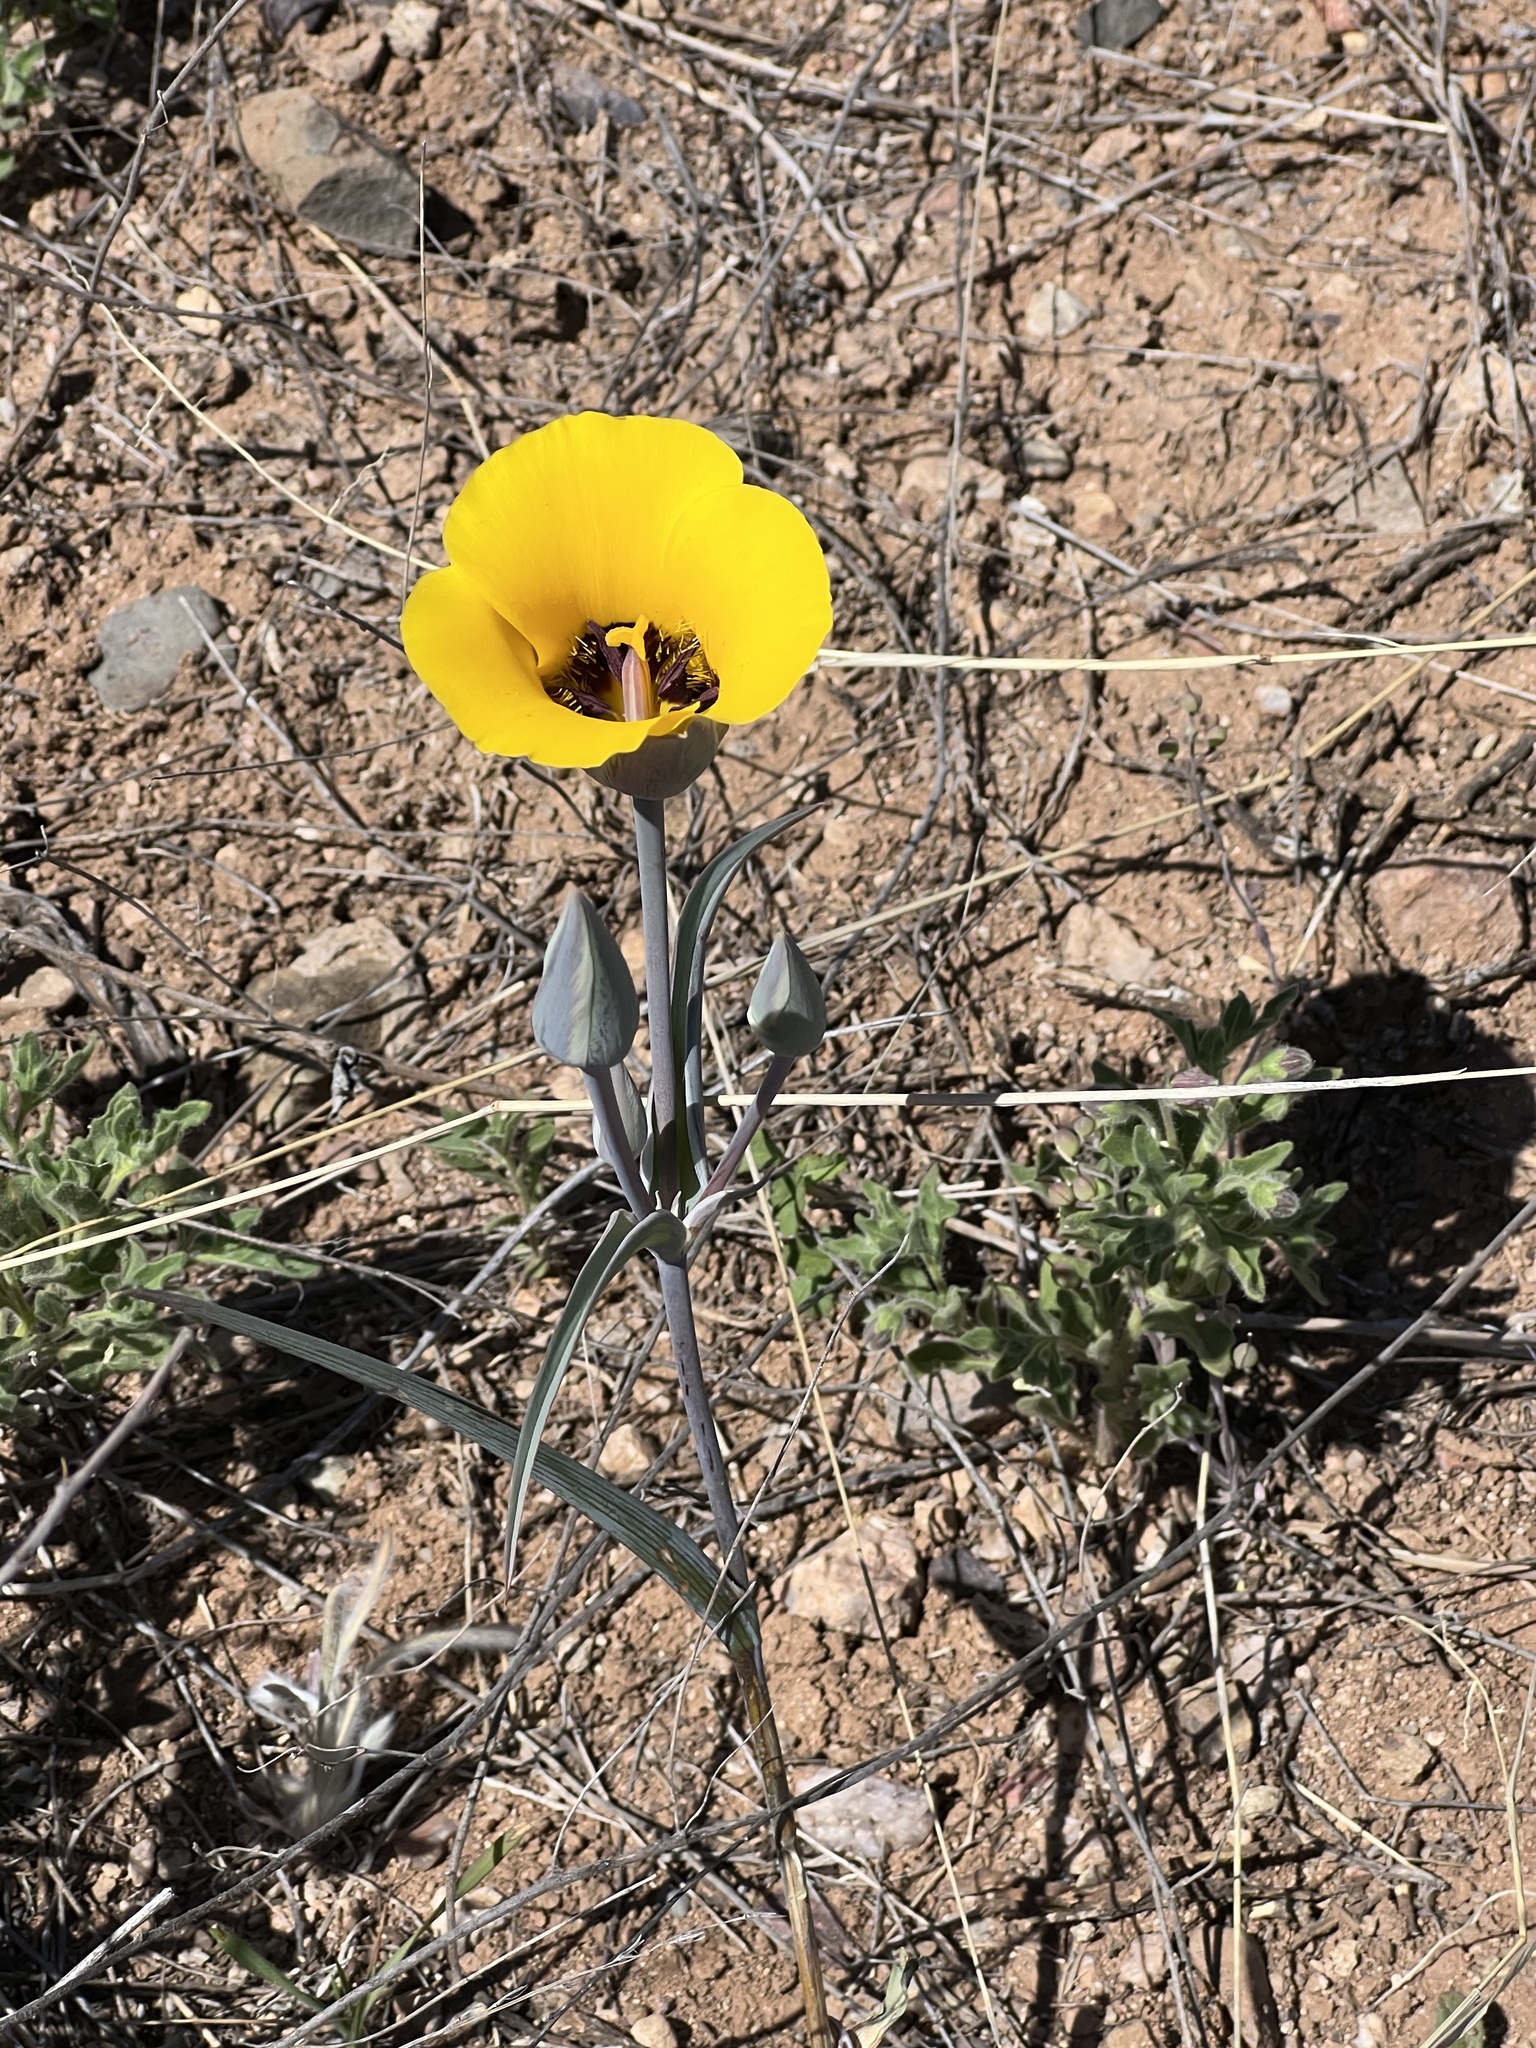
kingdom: Plantae
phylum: Tracheophyta
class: Liliopsida
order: Liliales
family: Liliaceae
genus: Calochortus
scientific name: Calochortus kennedyi
